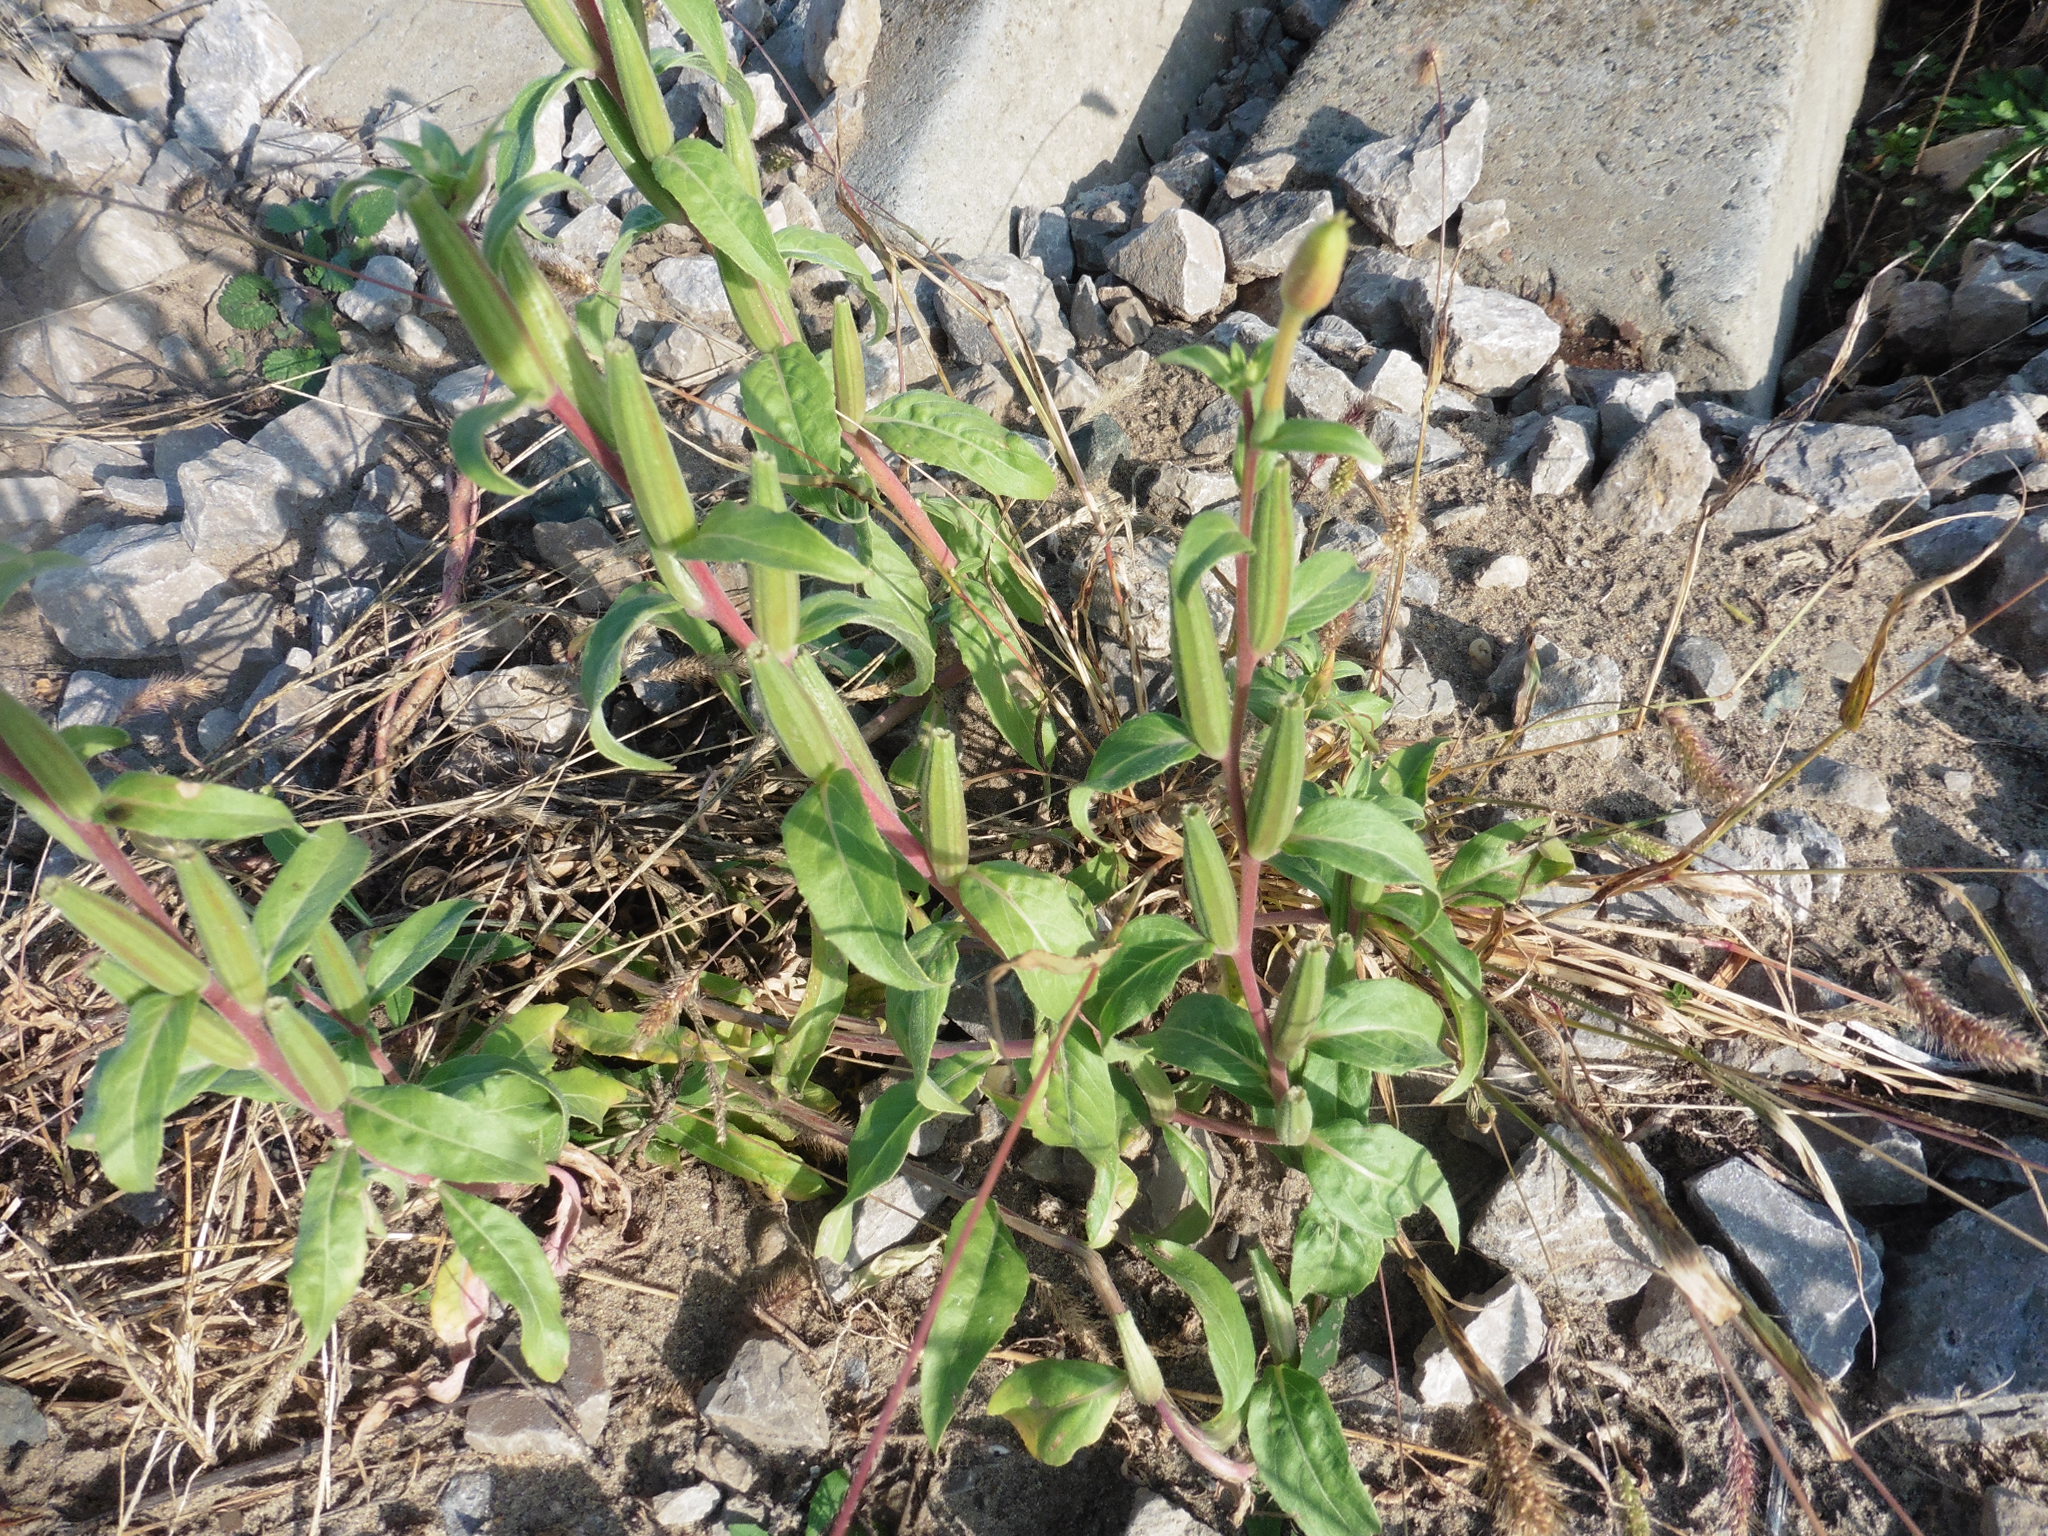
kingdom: Plantae
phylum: Tracheophyta
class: Magnoliopsida
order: Myrtales
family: Onagraceae
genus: Oenothera
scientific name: Oenothera villosa
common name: Hairy evening-primrose
